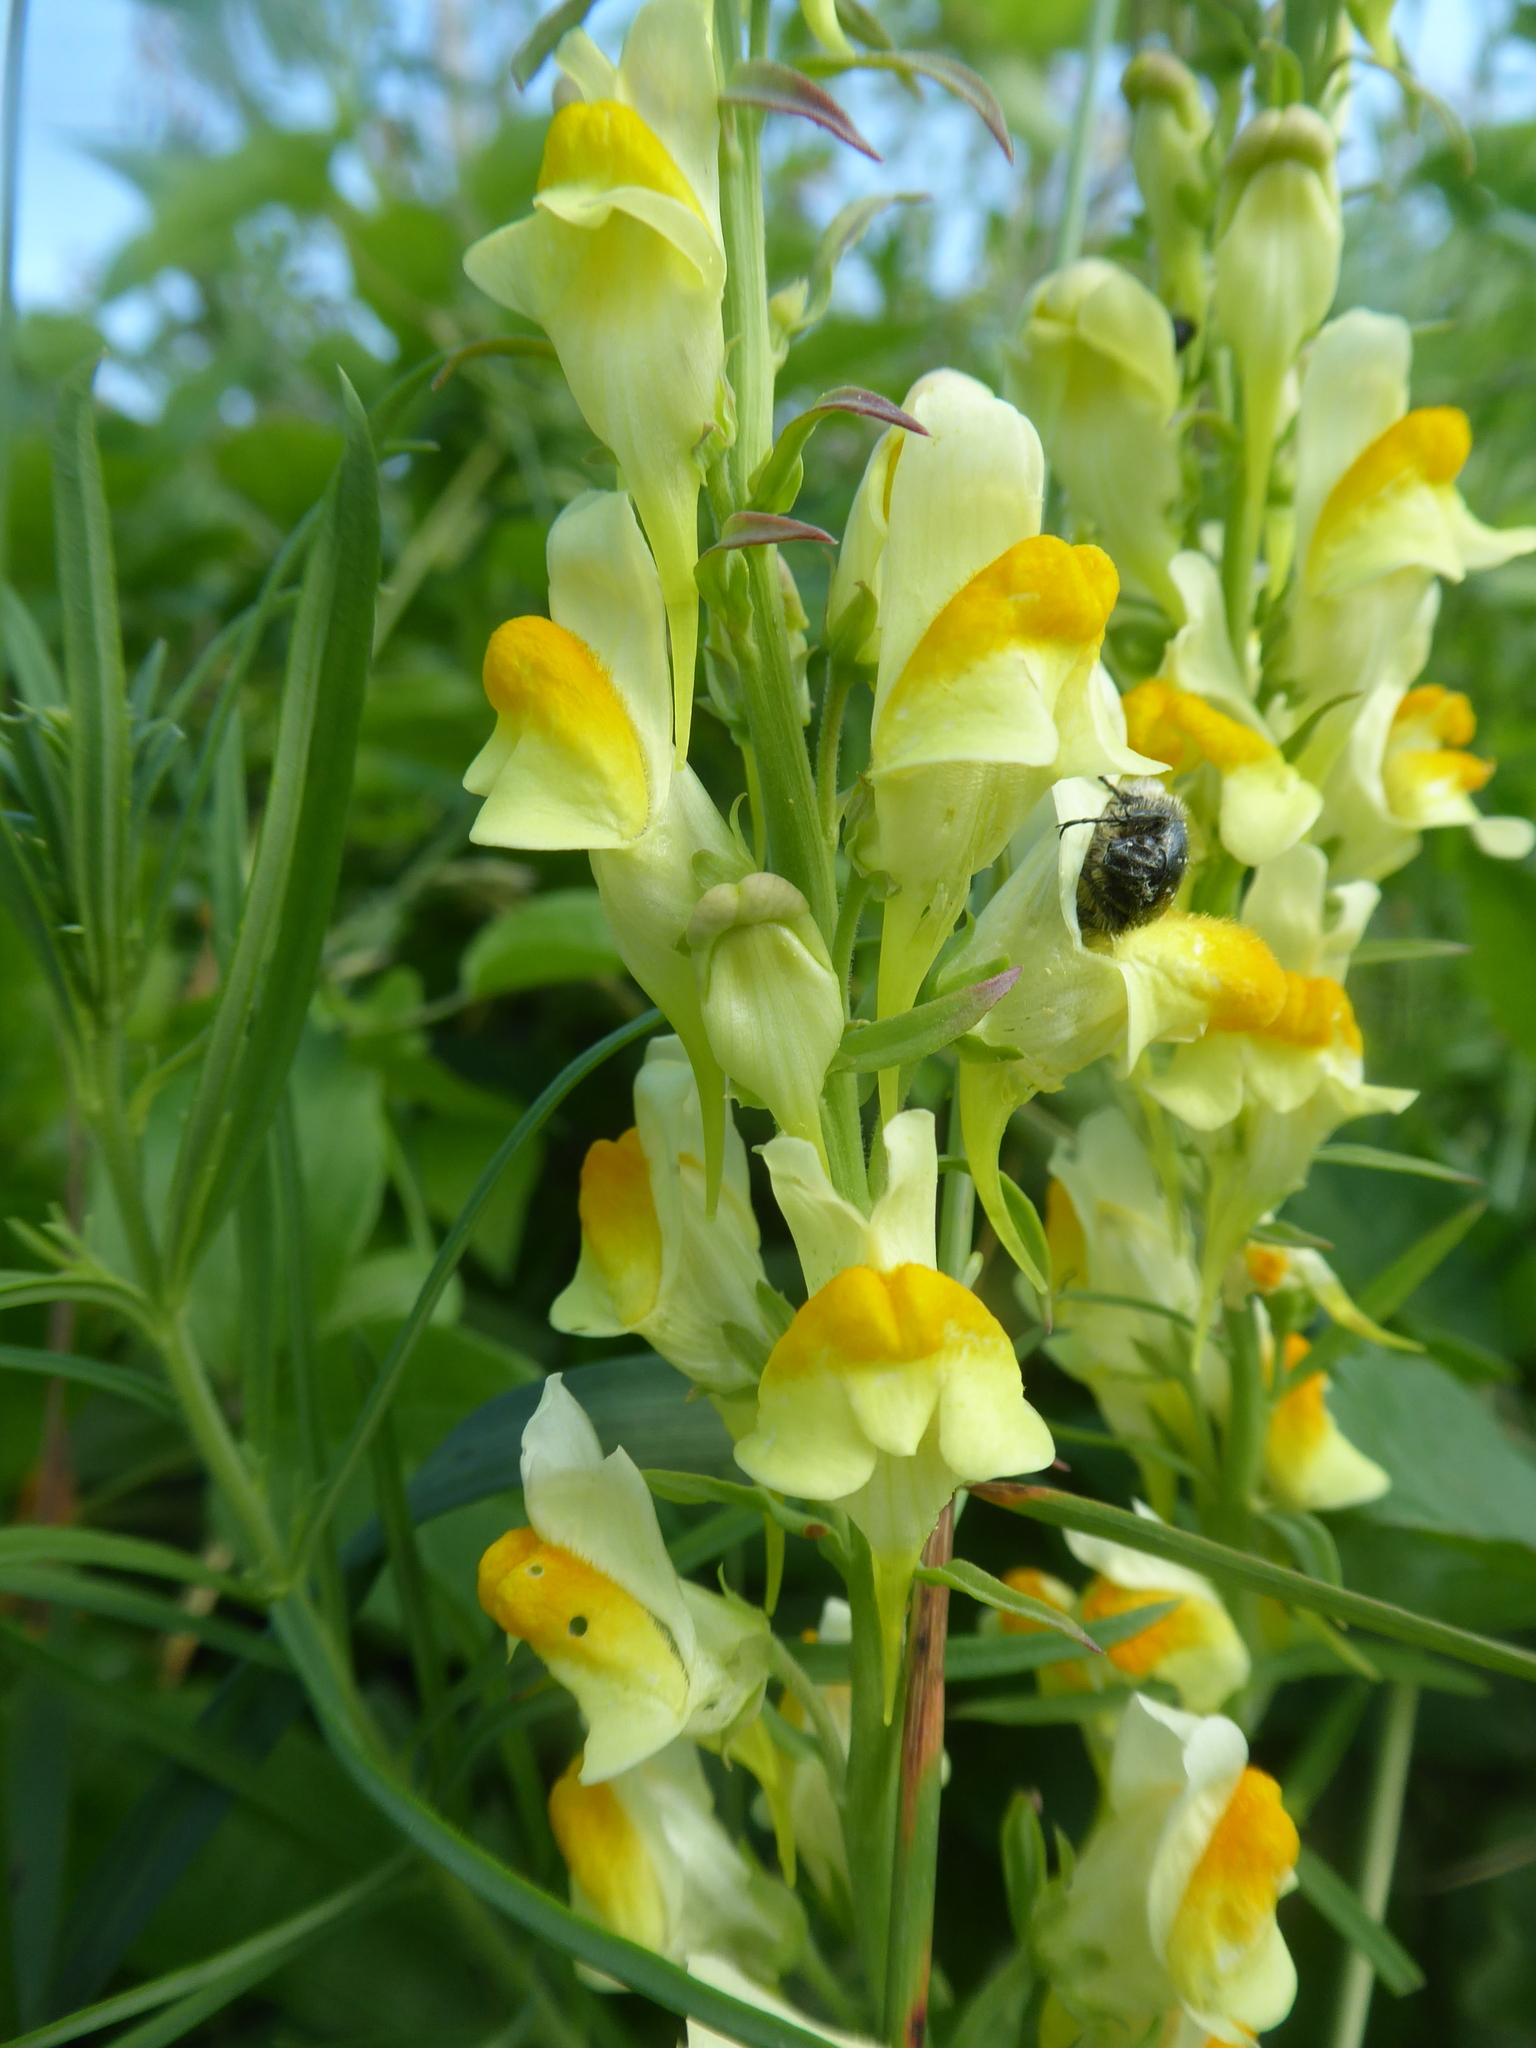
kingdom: Plantae
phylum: Tracheophyta
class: Magnoliopsida
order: Lamiales
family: Plantaginaceae
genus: Linaria
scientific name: Linaria vulgaris
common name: Butter and eggs
